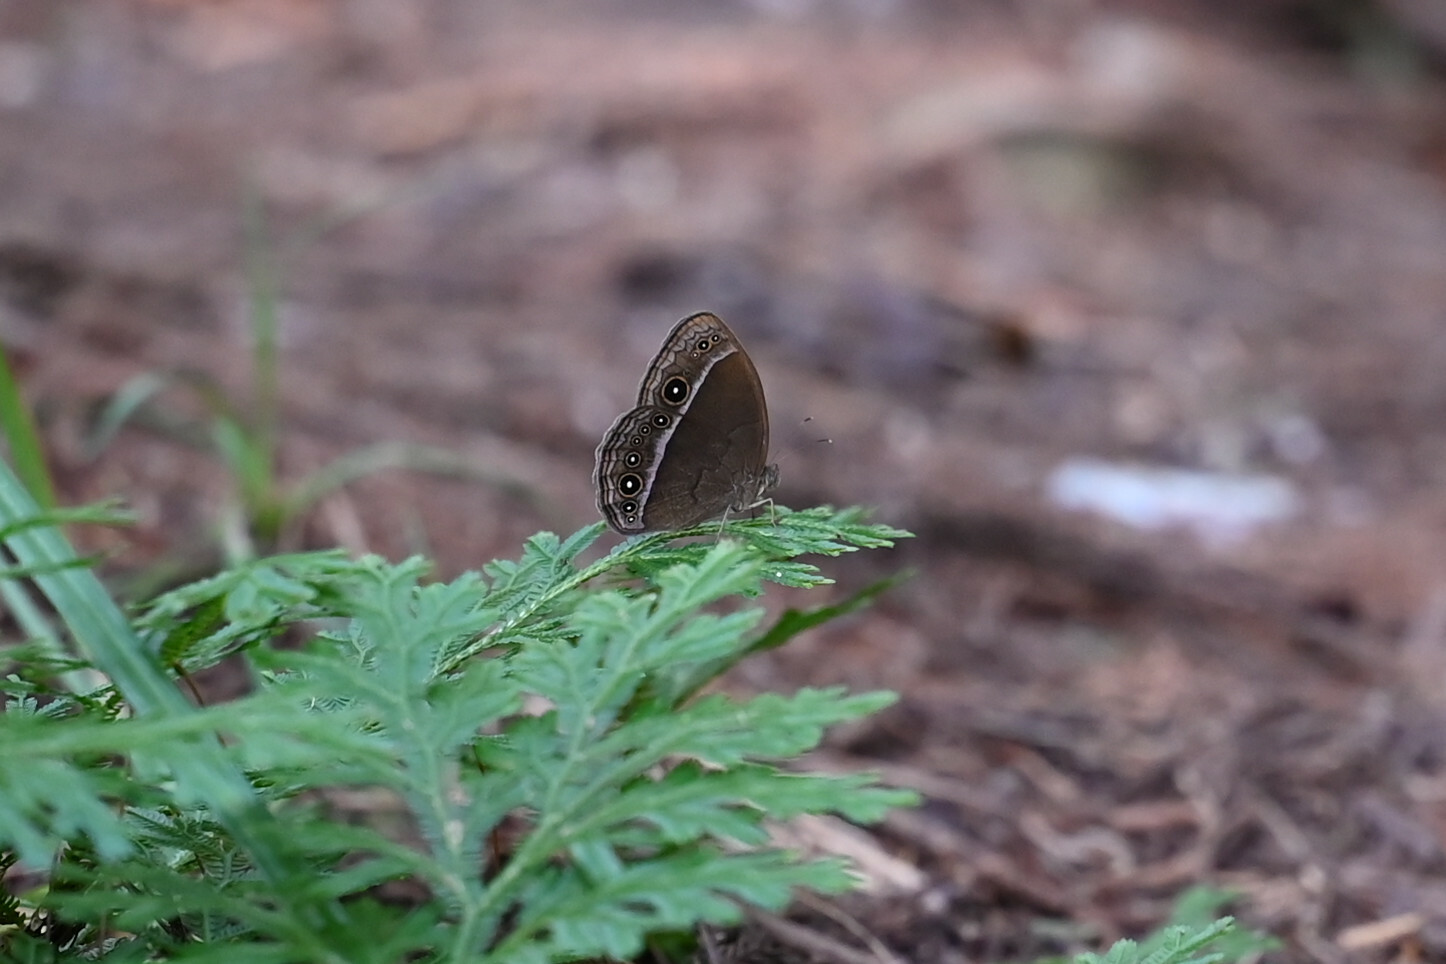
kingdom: Animalia
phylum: Arthropoda
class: Insecta
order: Lepidoptera
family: Nymphalidae
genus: Mycalesis
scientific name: Mycalesis francisca
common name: Lilacine bushbrown
